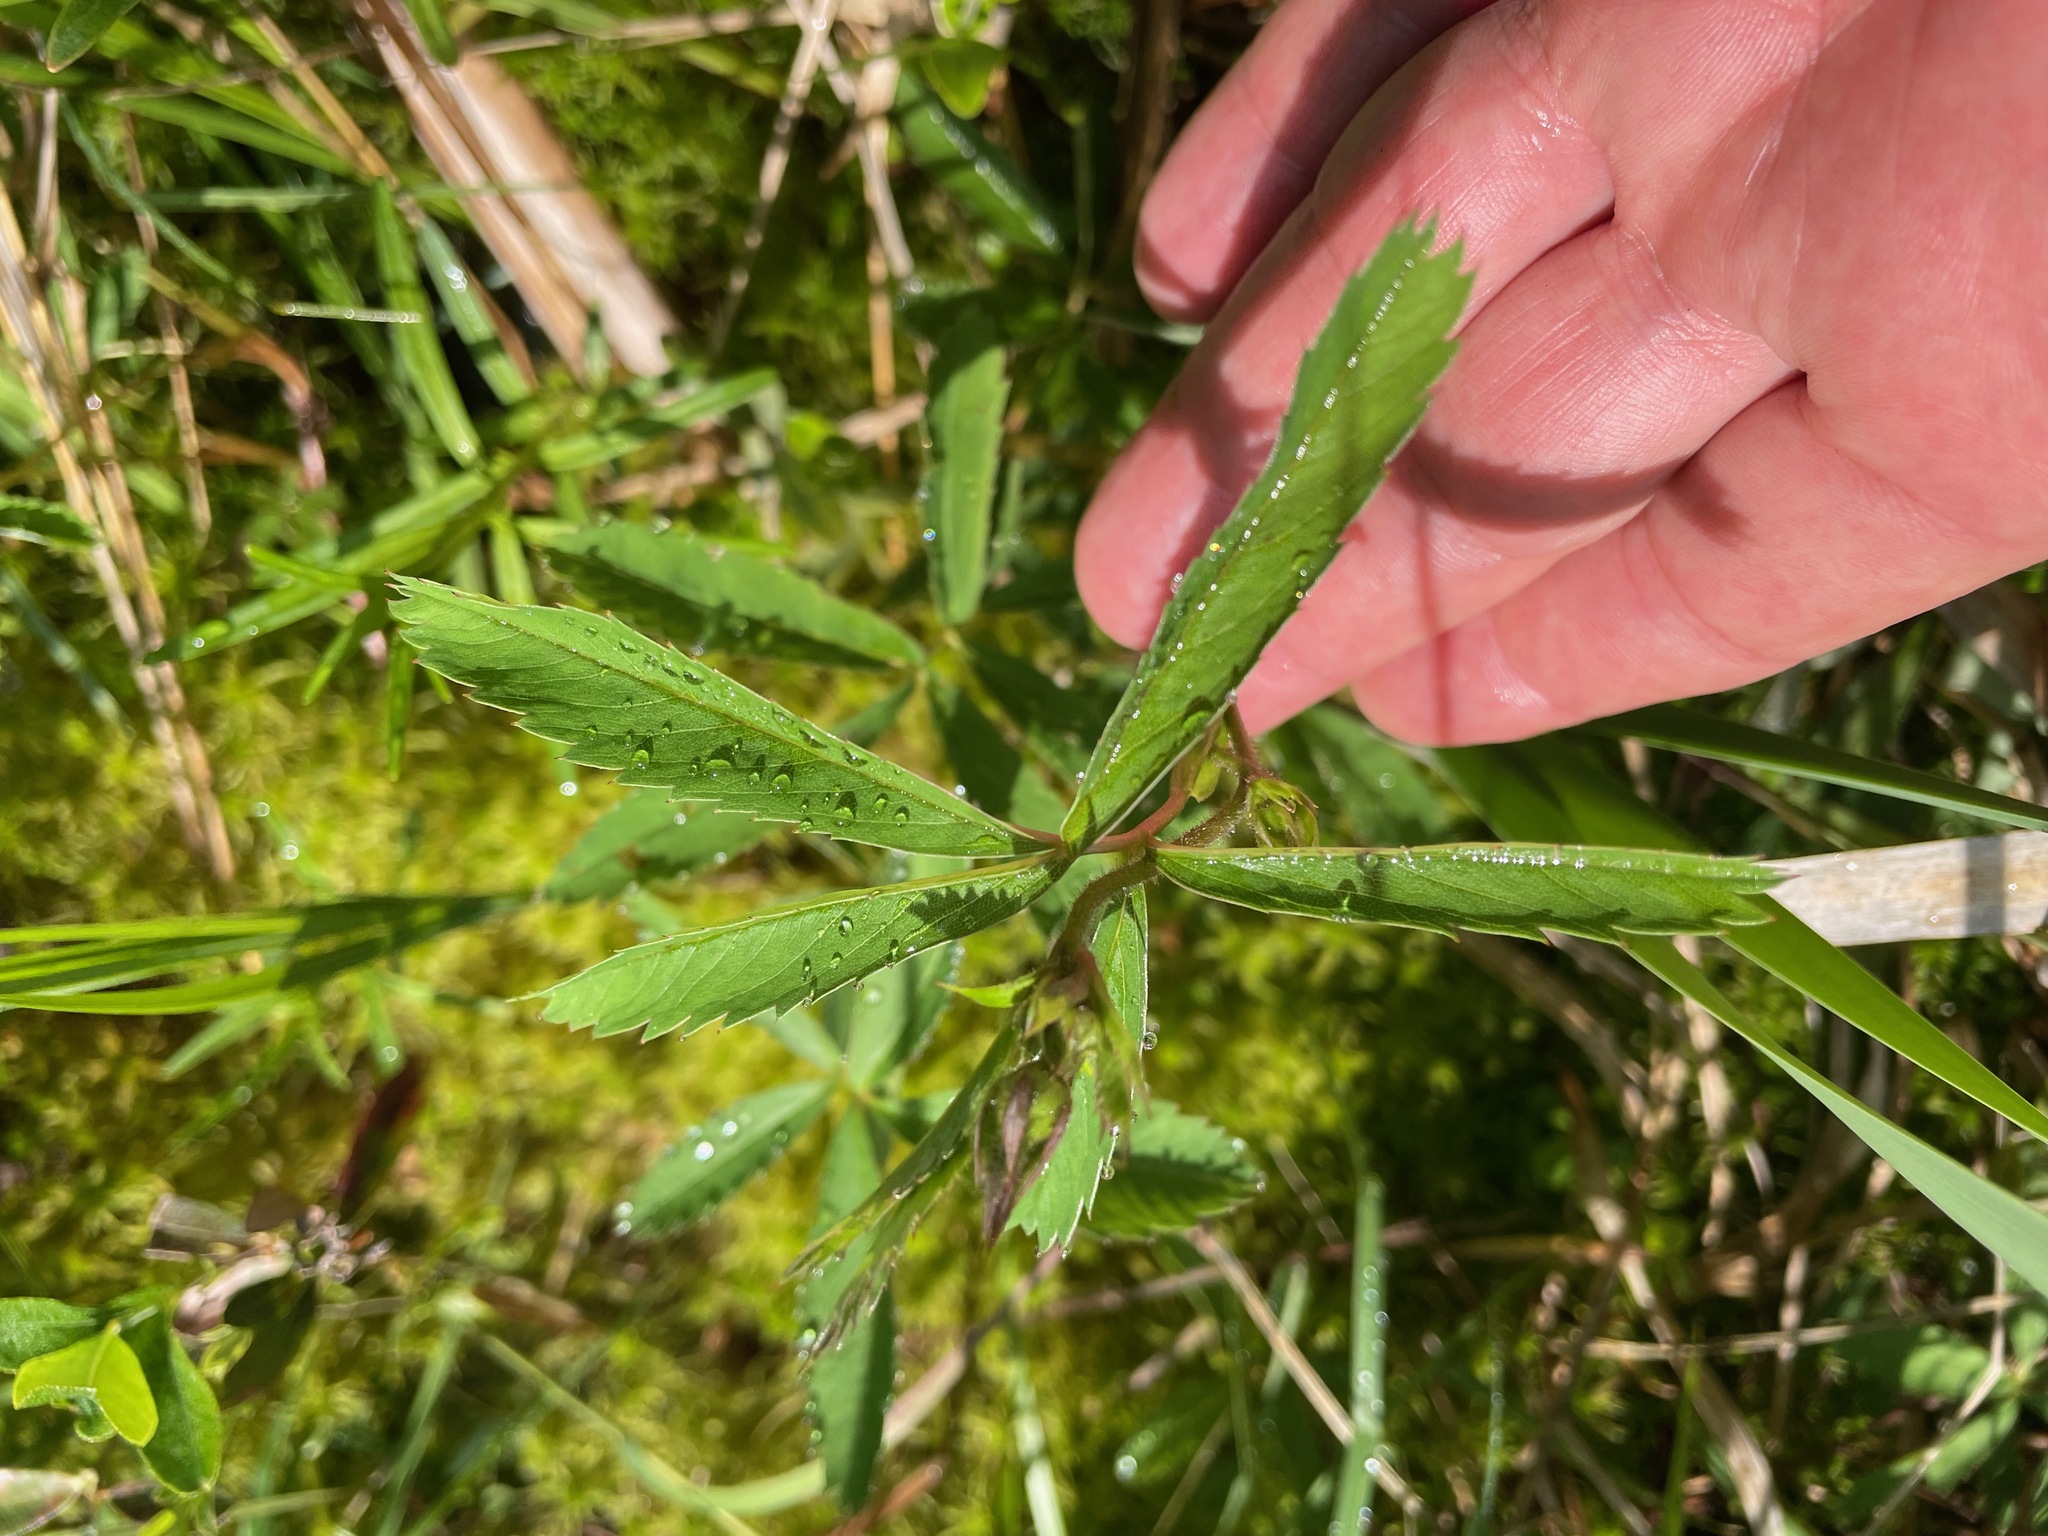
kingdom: Plantae
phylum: Tracheophyta
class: Magnoliopsida
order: Rosales
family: Rosaceae
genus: Comarum
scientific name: Comarum palustre
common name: Marsh cinquefoil
